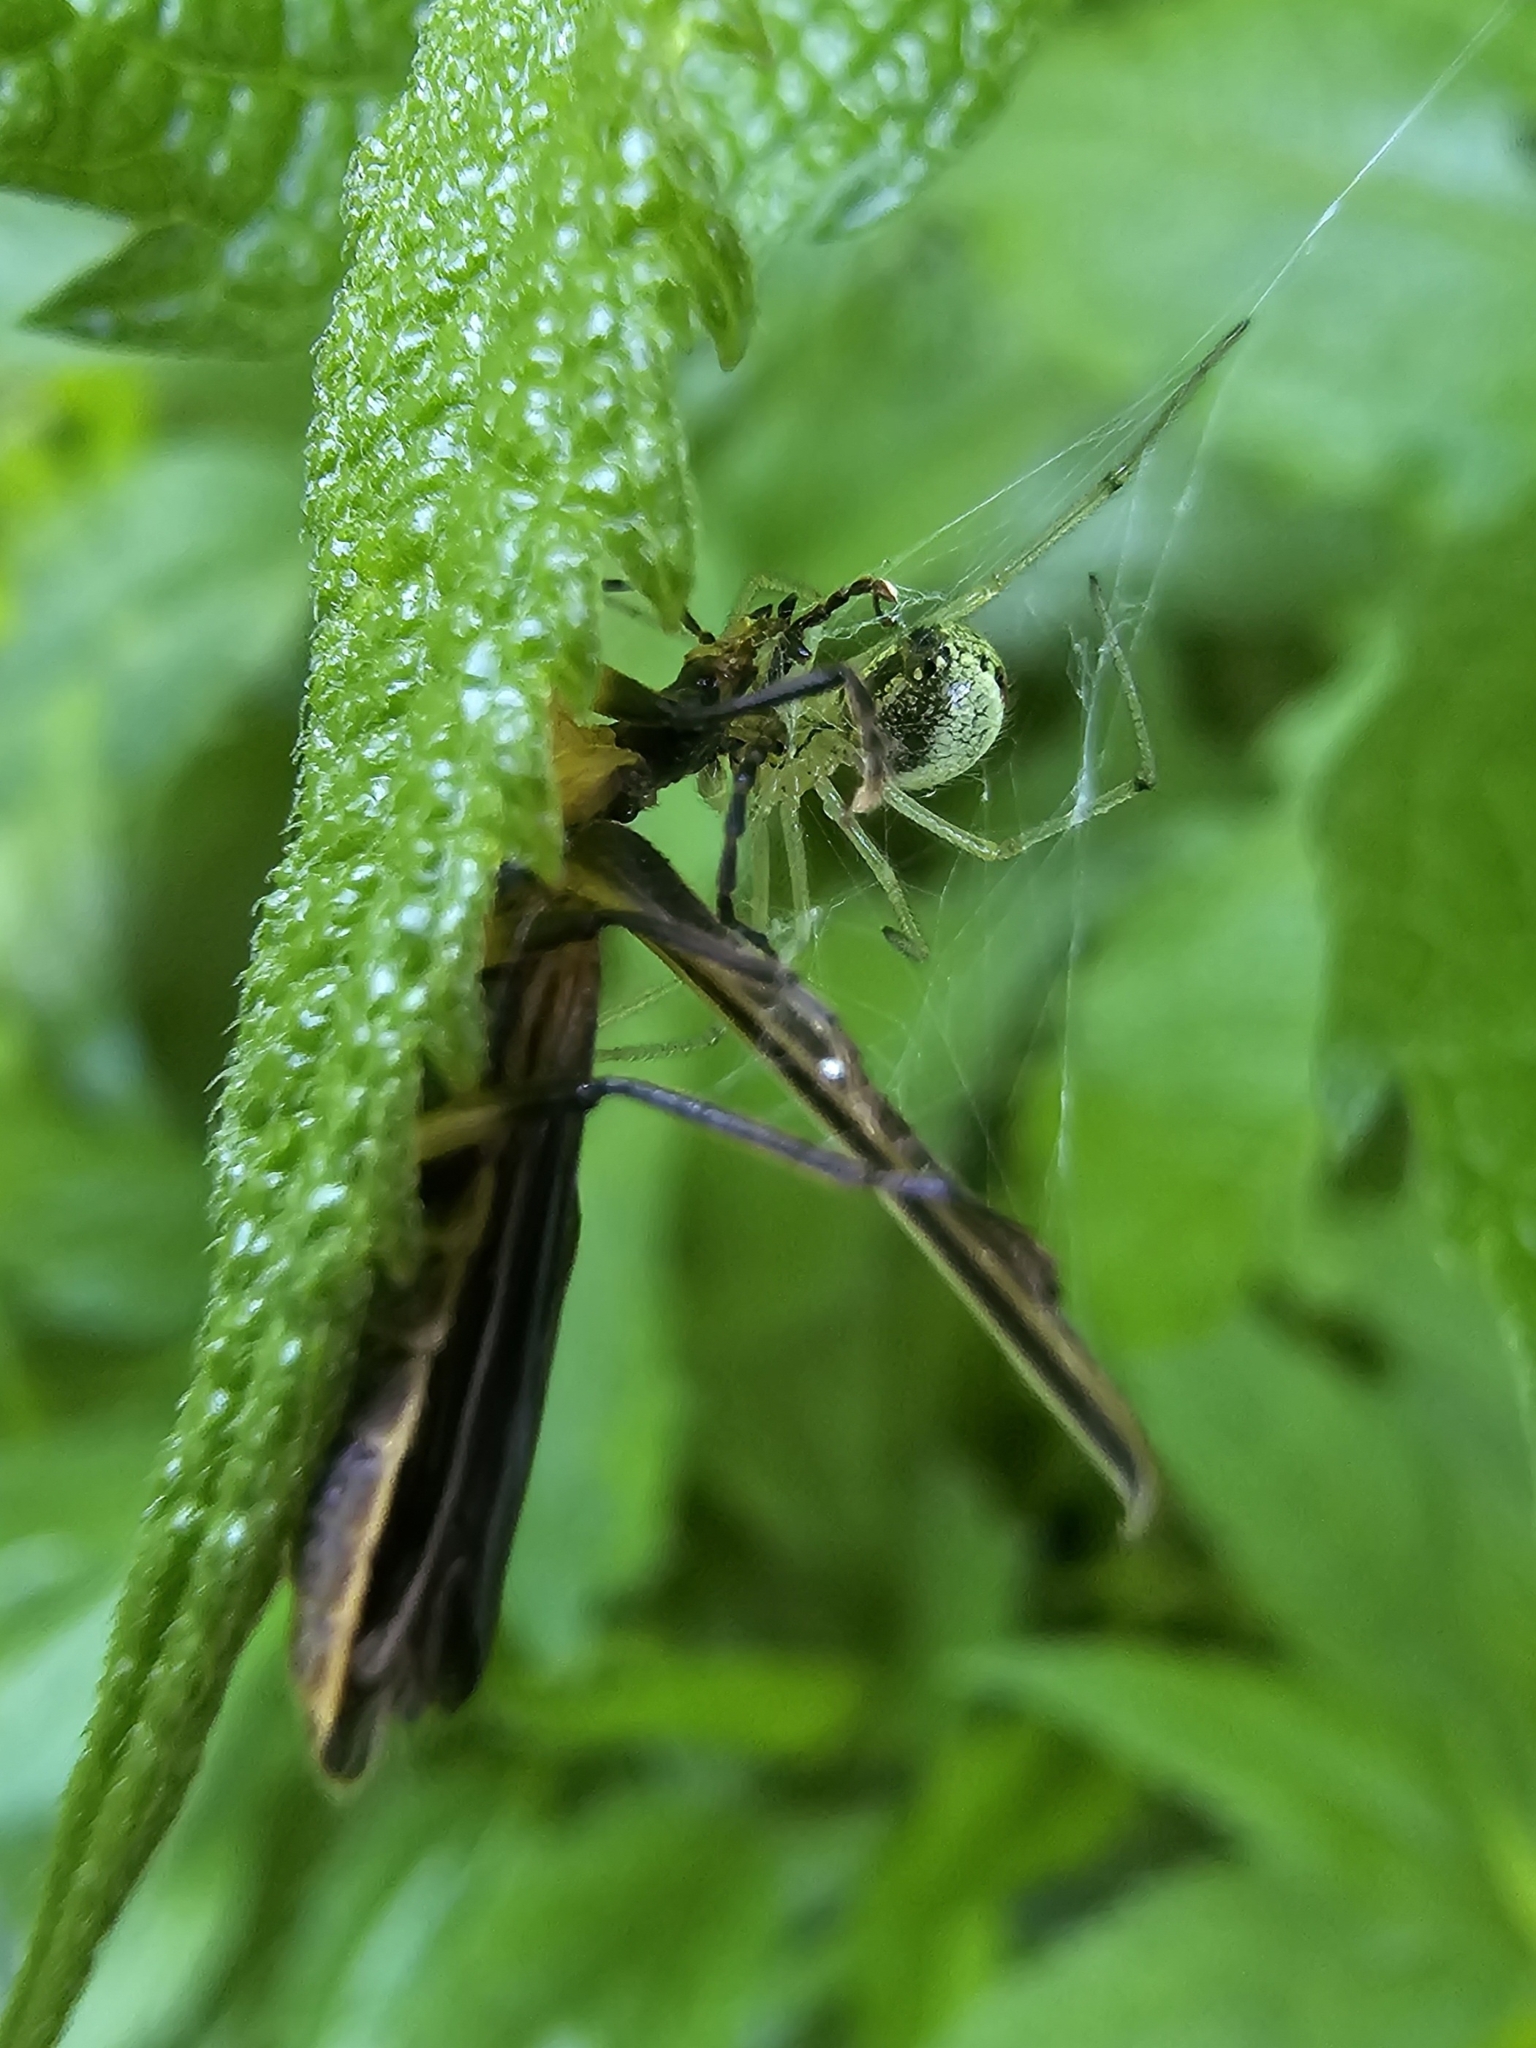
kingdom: Animalia
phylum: Arthropoda
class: Arachnida
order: Araneae
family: Theridiidae
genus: Enoplognatha
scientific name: Enoplognatha ovata
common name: Common candy-striped spider
